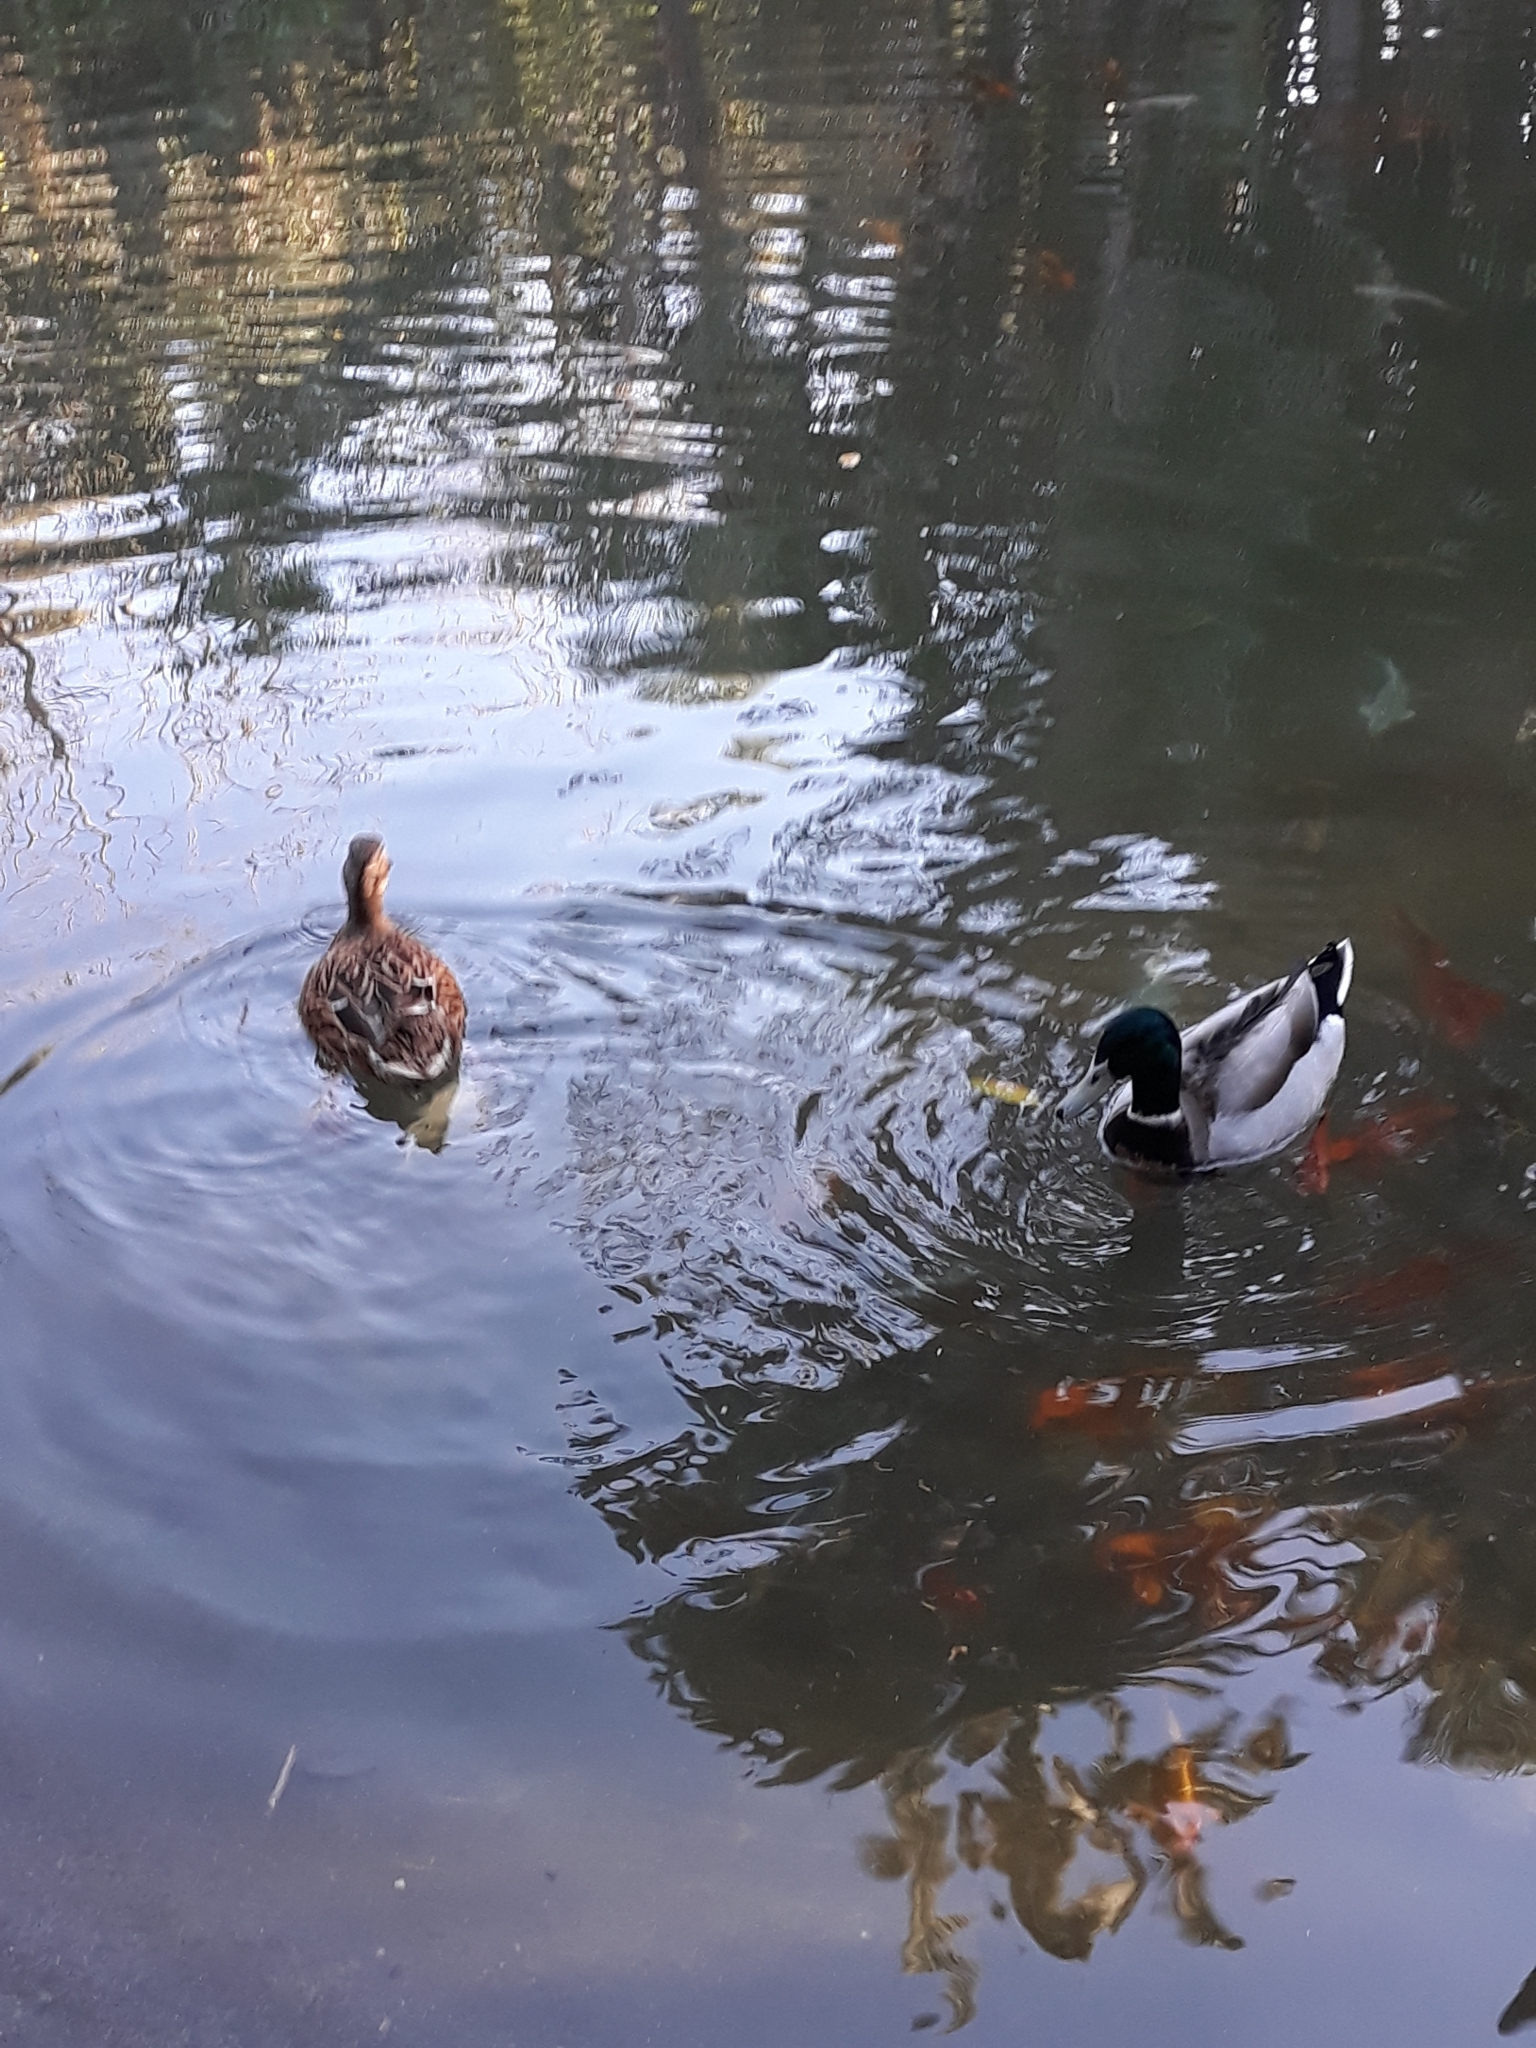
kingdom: Animalia
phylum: Chordata
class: Aves
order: Anseriformes
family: Anatidae
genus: Anas
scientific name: Anas platyrhynchos
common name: Mallard
